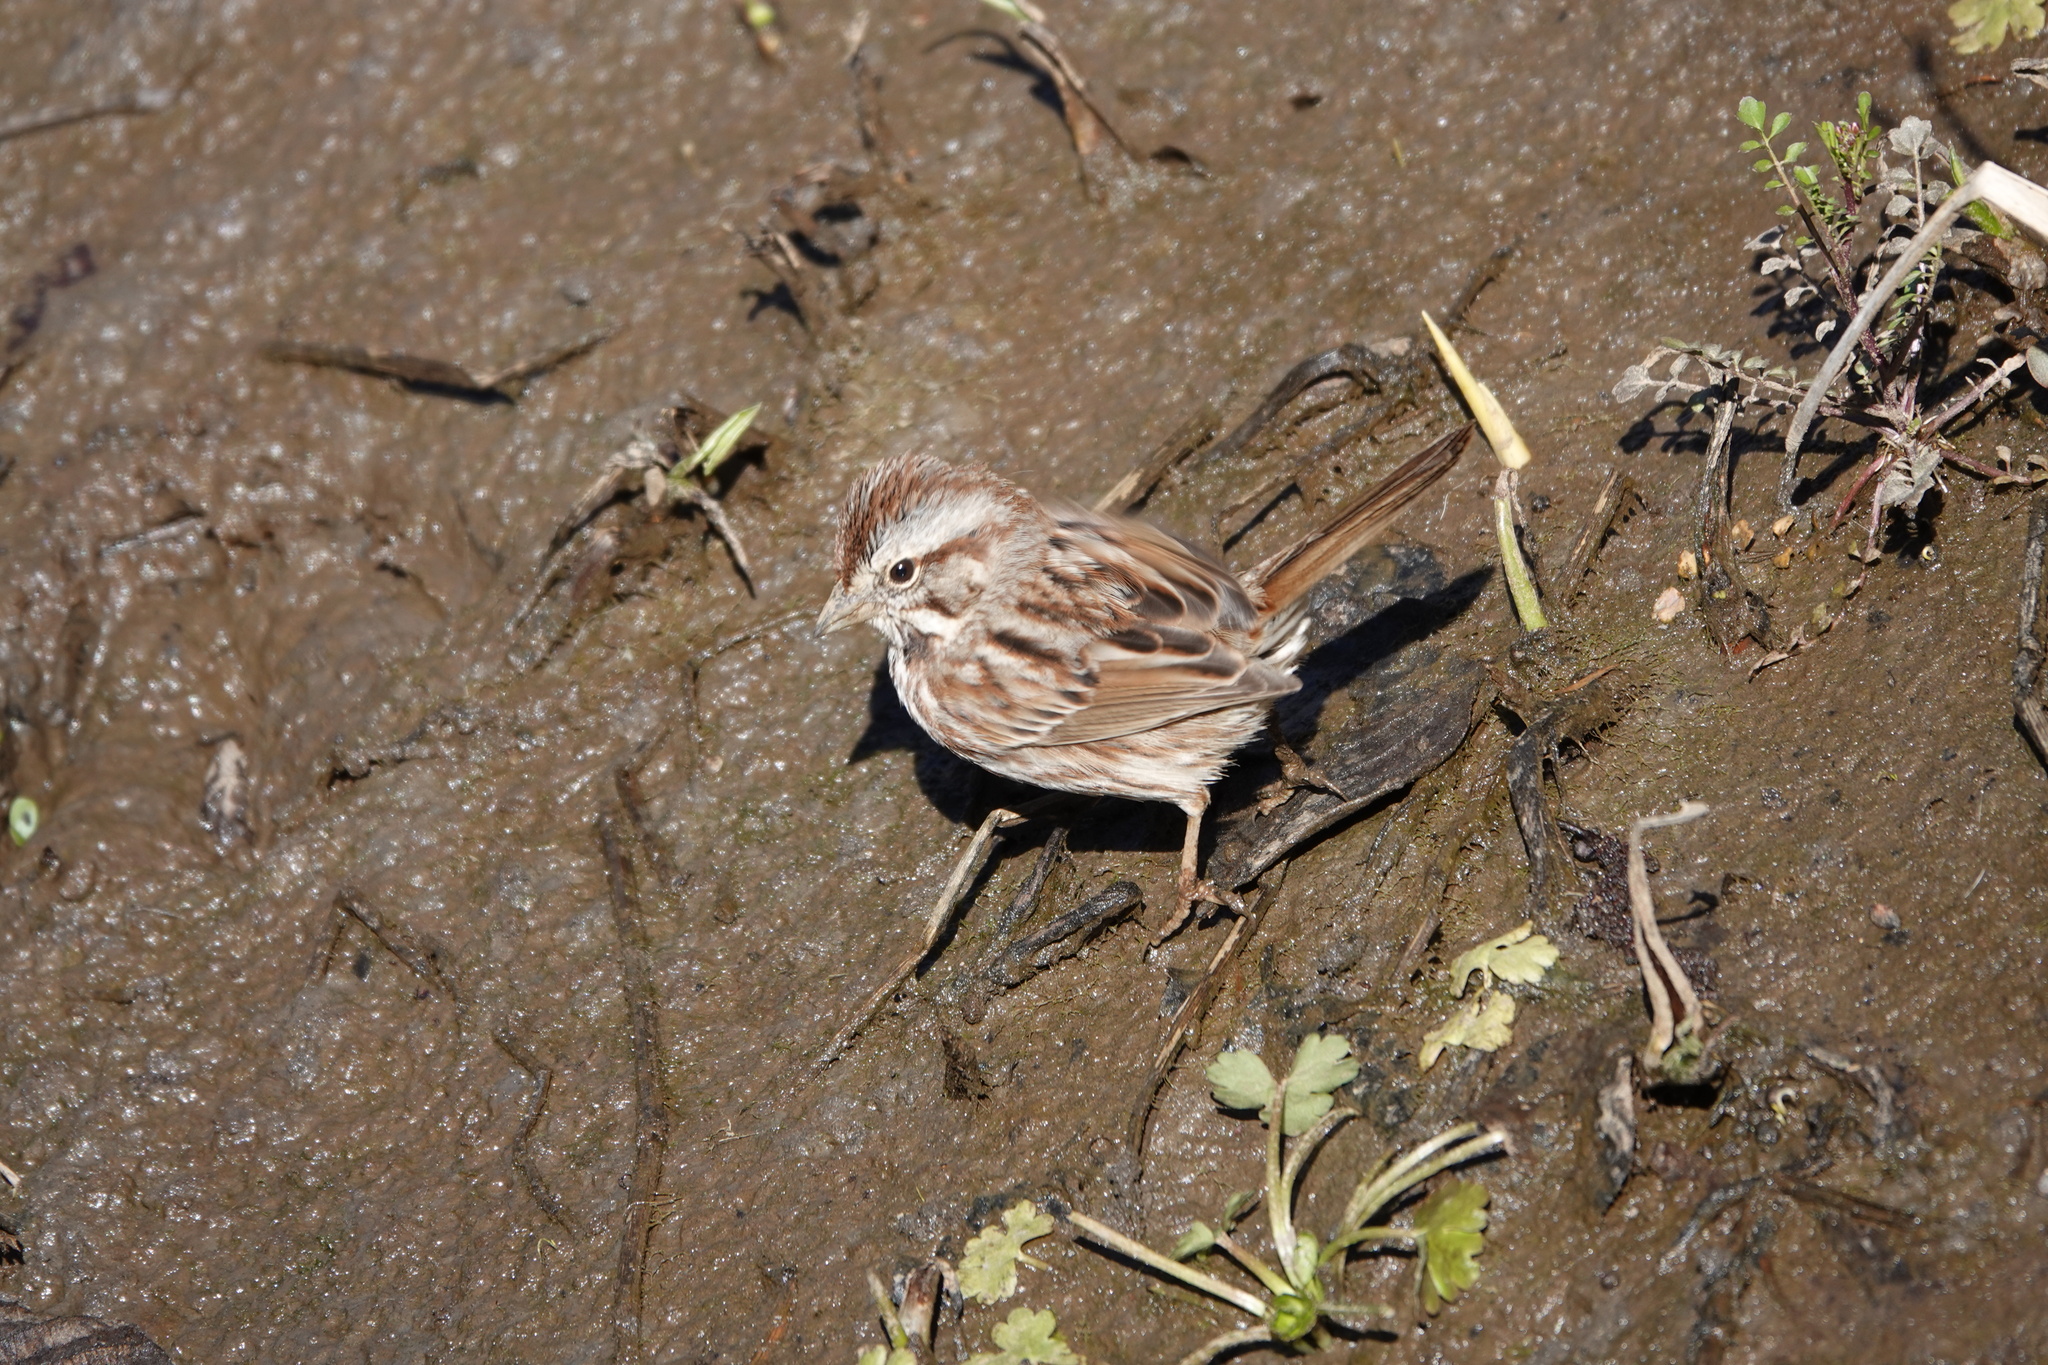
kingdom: Animalia
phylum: Chordata
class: Aves
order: Passeriformes
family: Passerellidae
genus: Melospiza
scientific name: Melospiza melodia
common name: Song sparrow
